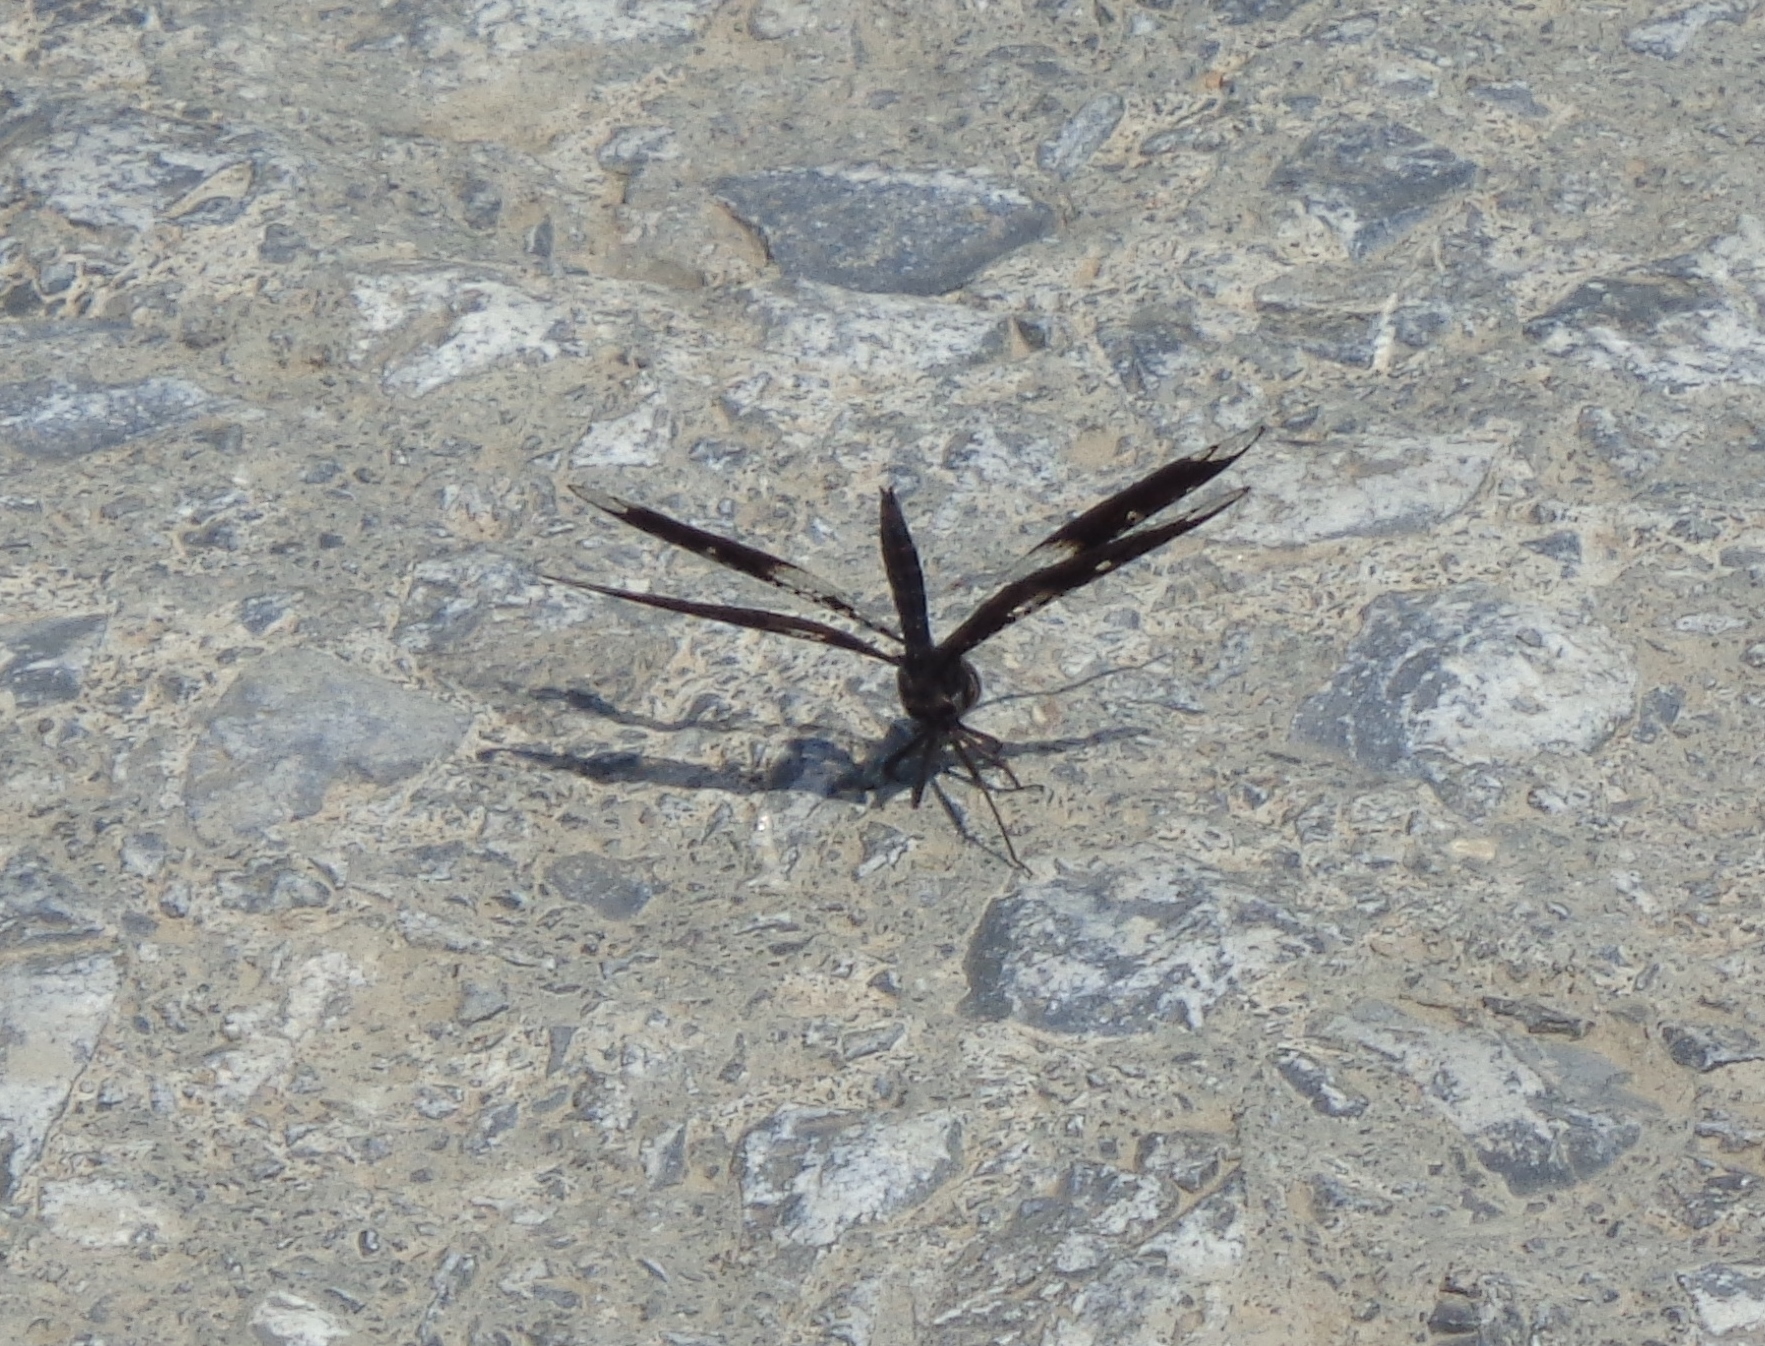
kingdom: Animalia
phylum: Arthropoda
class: Insecta
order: Odonata
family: Libellulidae
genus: Pseudoleon
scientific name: Pseudoleon superbus
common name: Filigree skimmer
